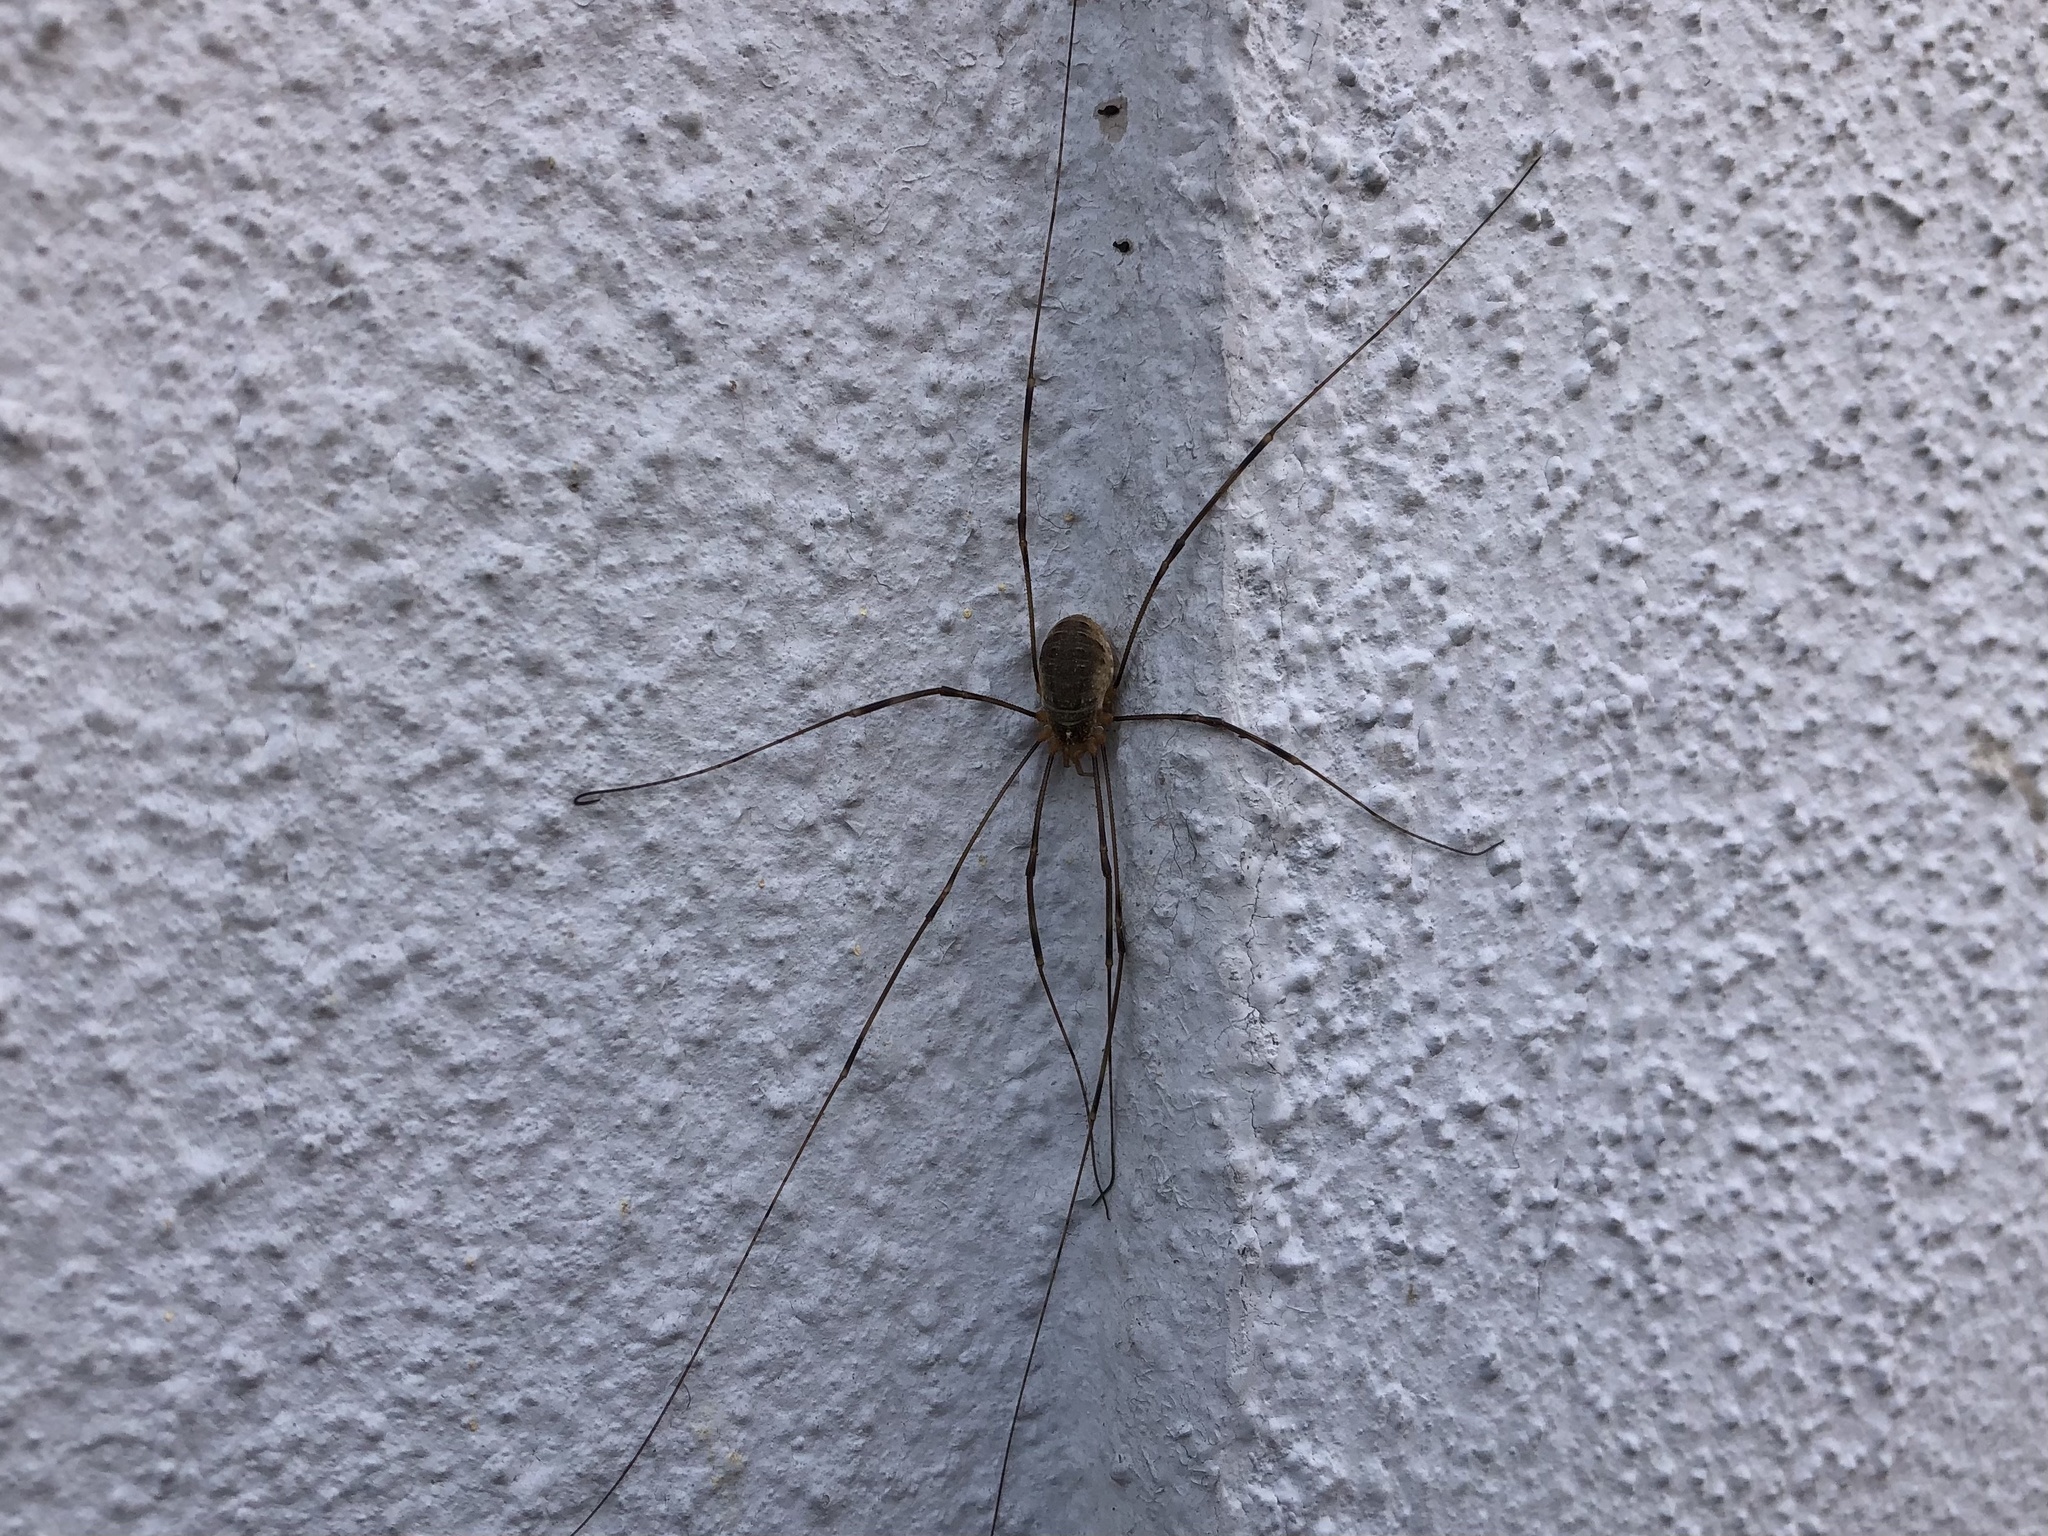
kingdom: Animalia
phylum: Arthropoda
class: Arachnida
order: Opiliones
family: Phalangiidae
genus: Opilio
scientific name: Opilio canestrinii
